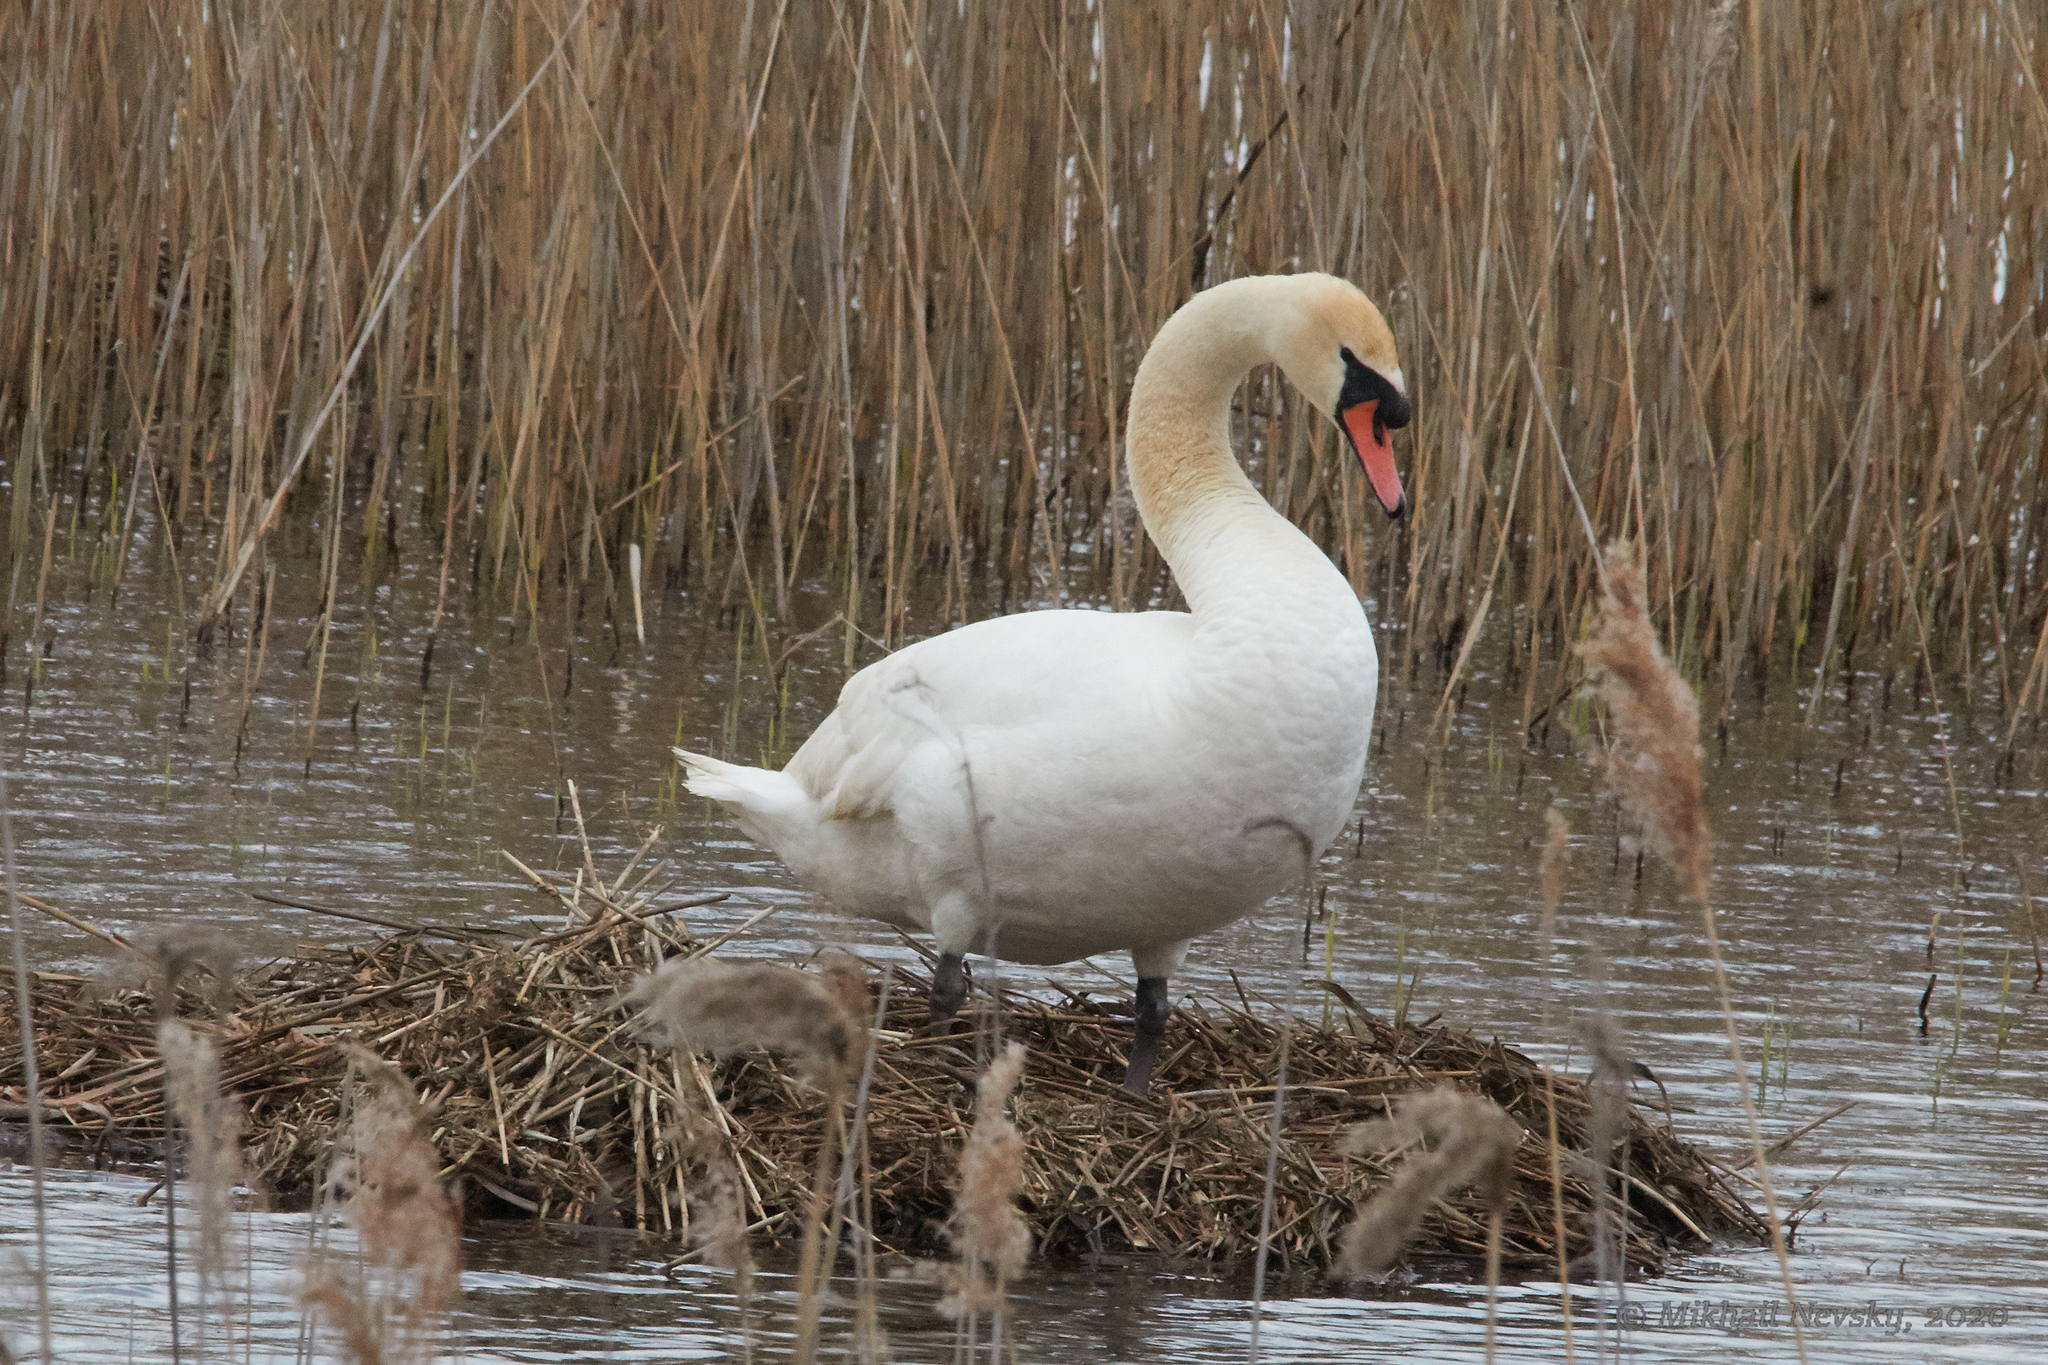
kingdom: Animalia
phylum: Chordata
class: Aves
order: Anseriformes
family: Anatidae
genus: Cygnus
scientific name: Cygnus olor
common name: Mute swan
